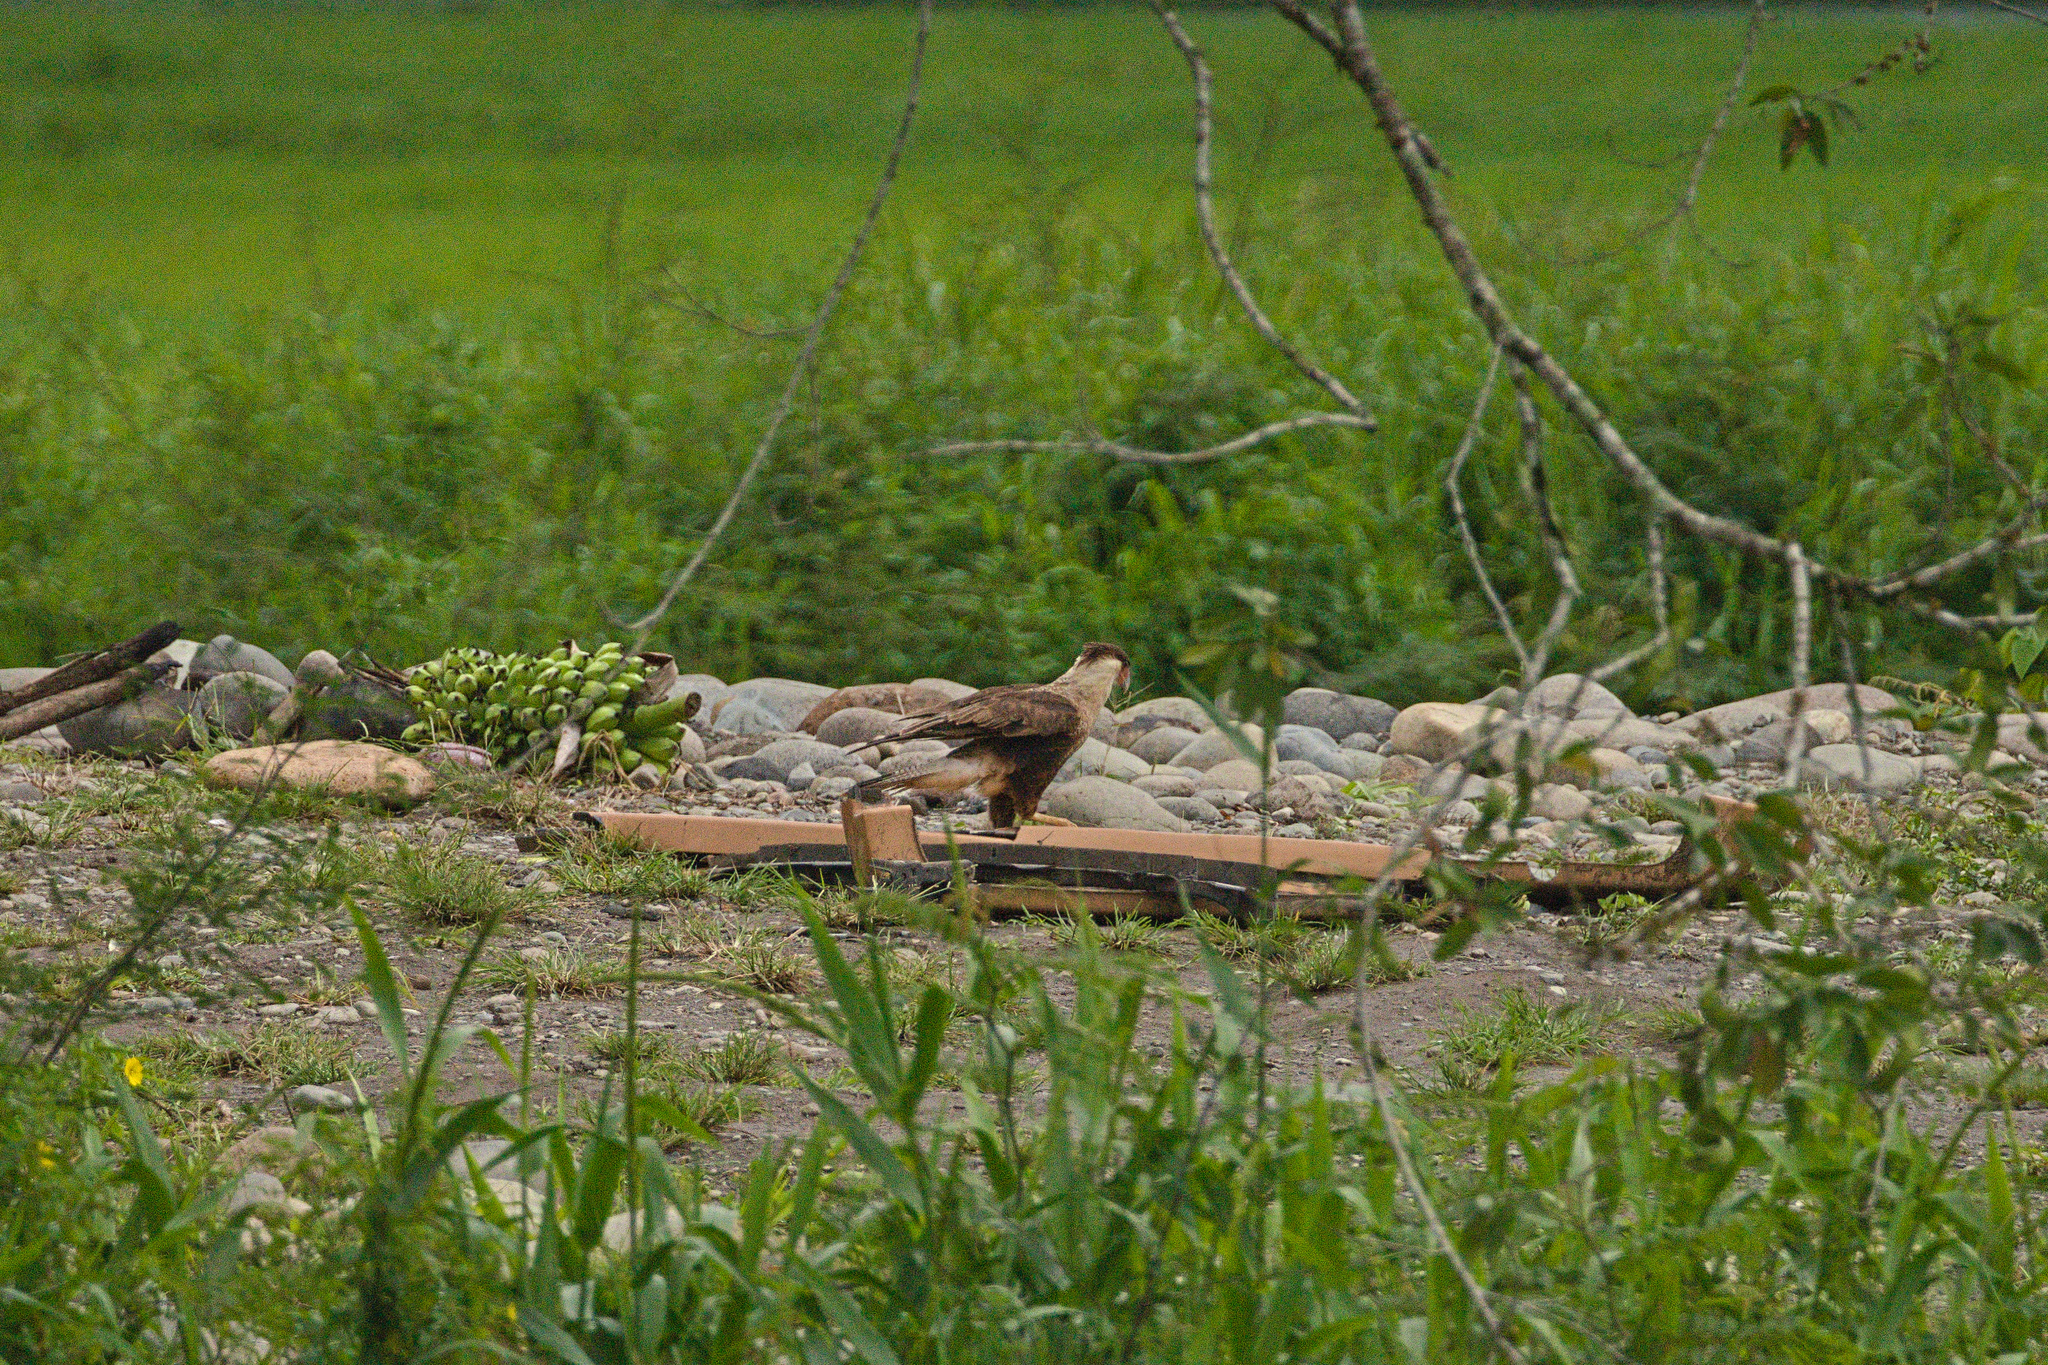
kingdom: Animalia
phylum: Chordata
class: Aves
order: Falconiformes
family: Falconidae
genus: Caracara
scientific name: Caracara plancus
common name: Southern caracara
